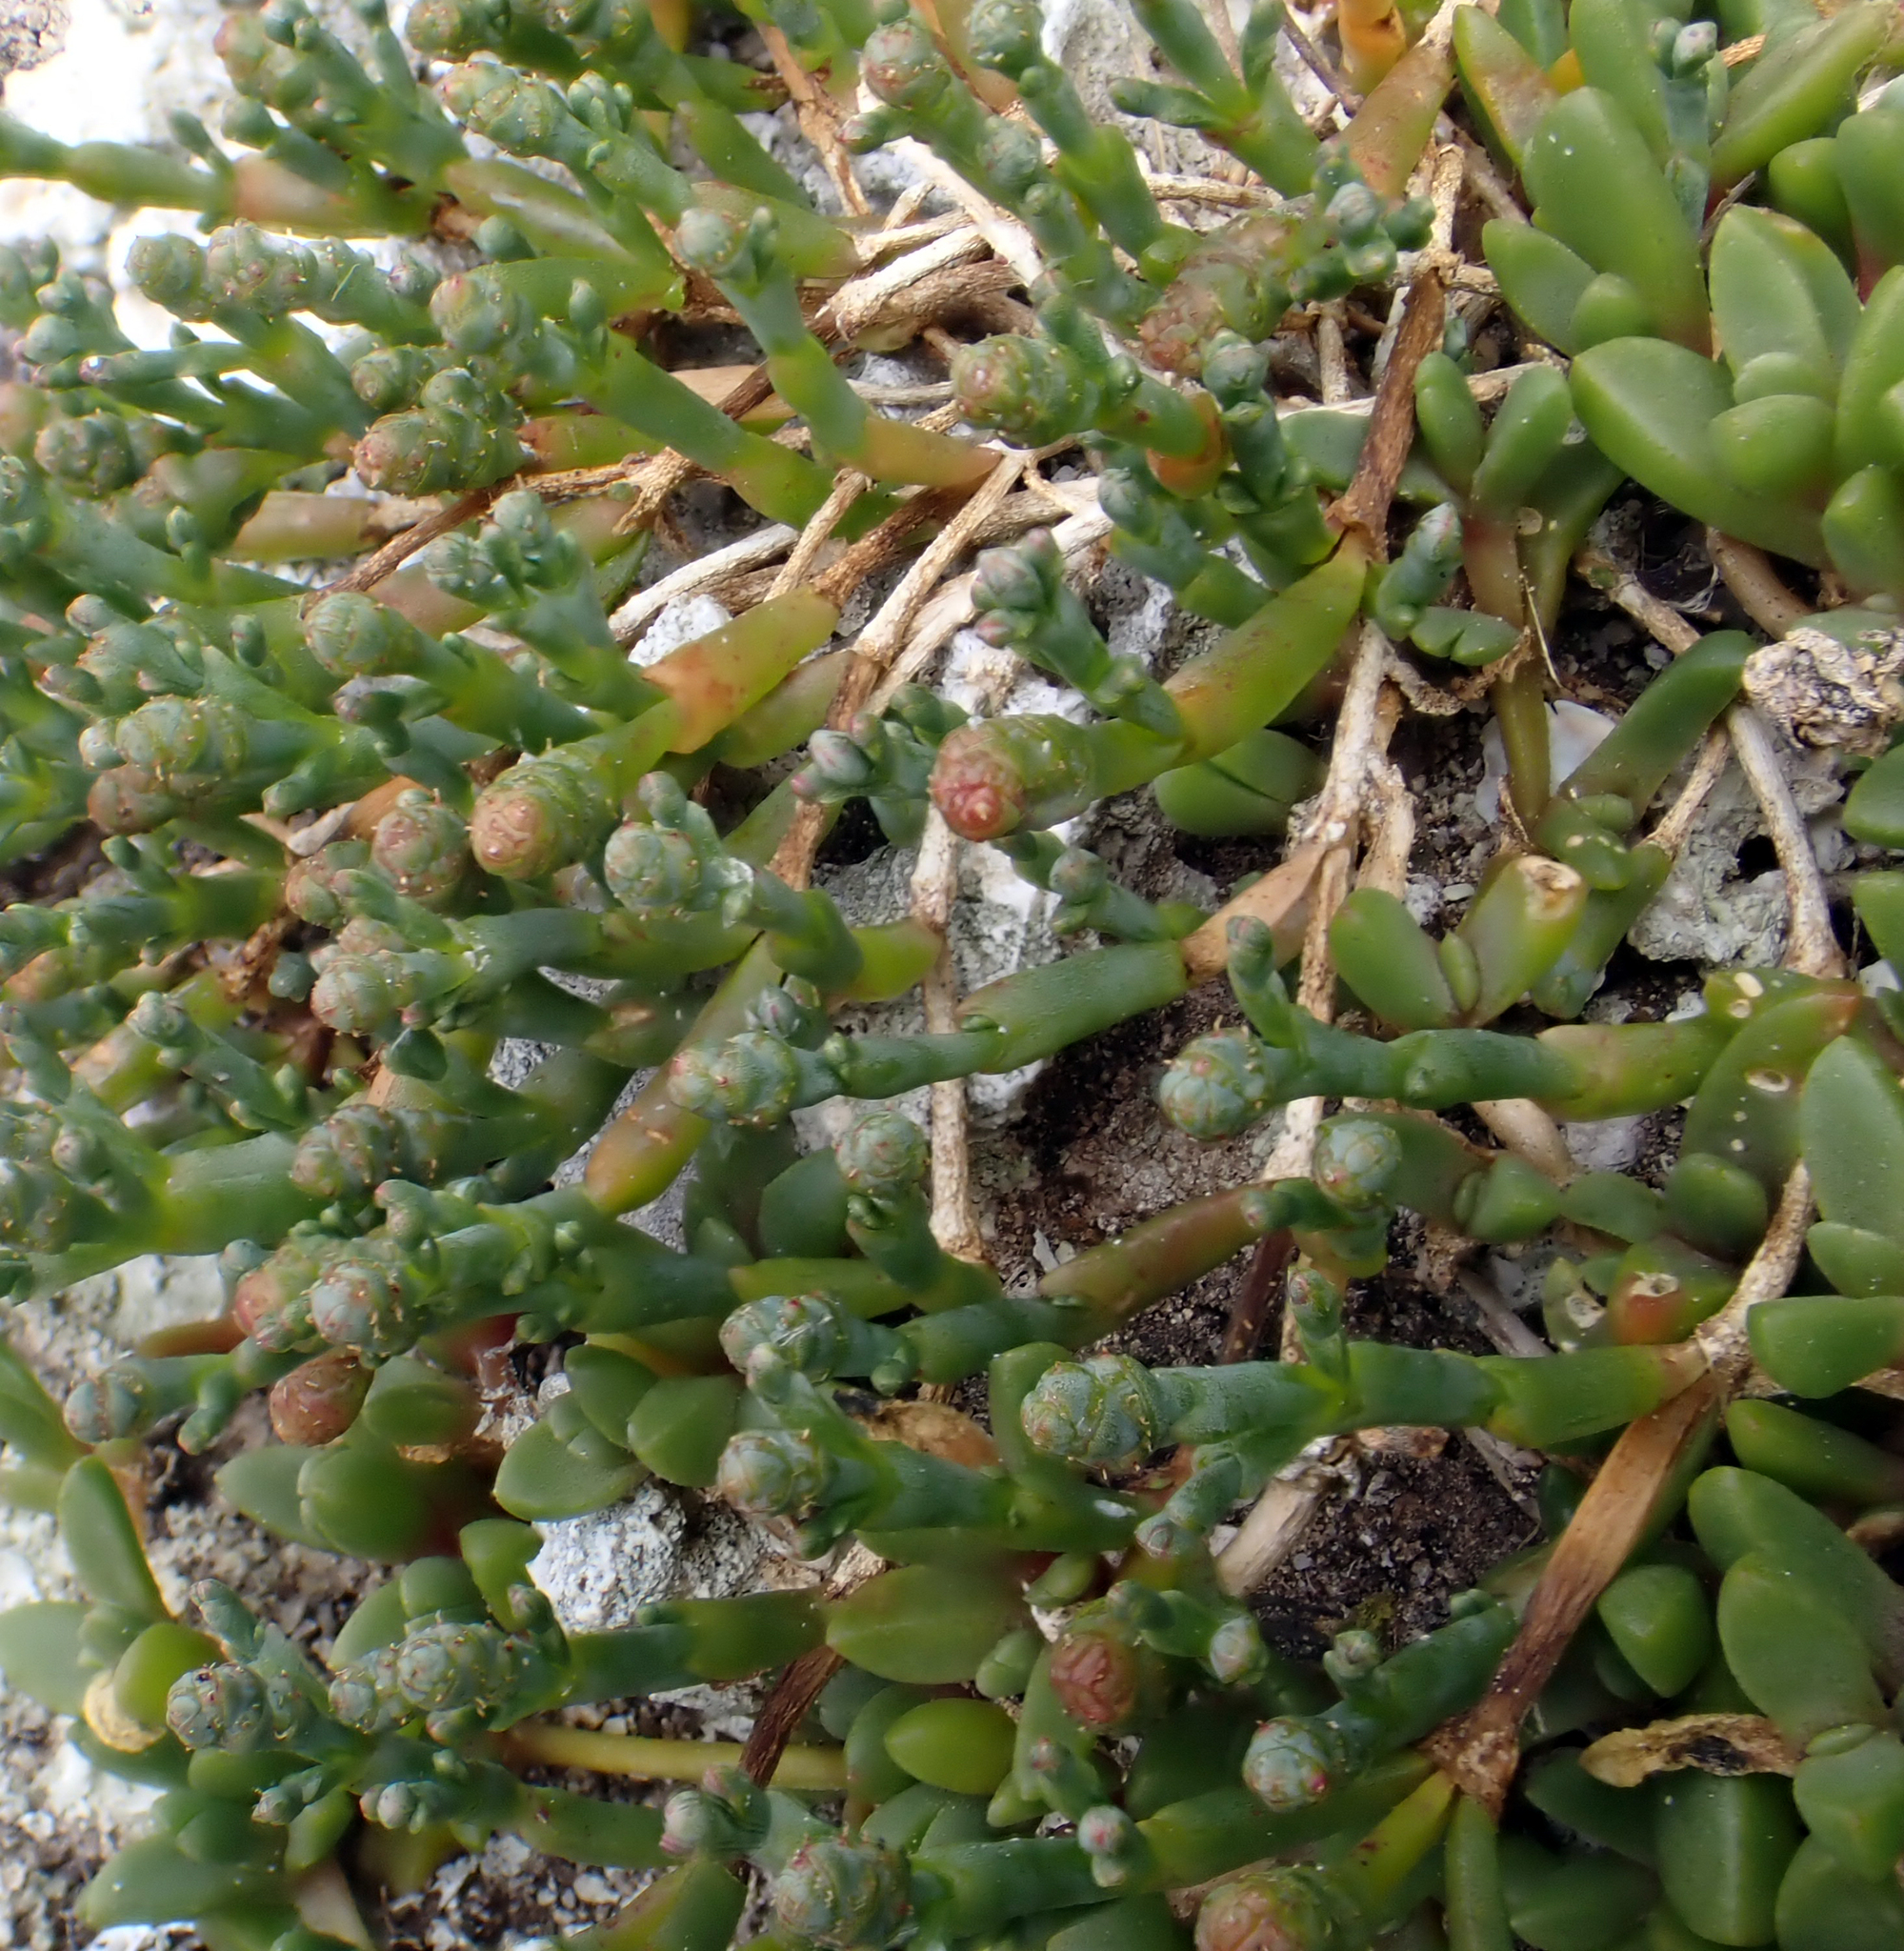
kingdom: Plantae
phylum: Tracheophyta
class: Magnoliopsida
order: Caryophyllales
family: Amaranthaceae
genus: Salicornia
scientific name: Salicornia quinqueflora
